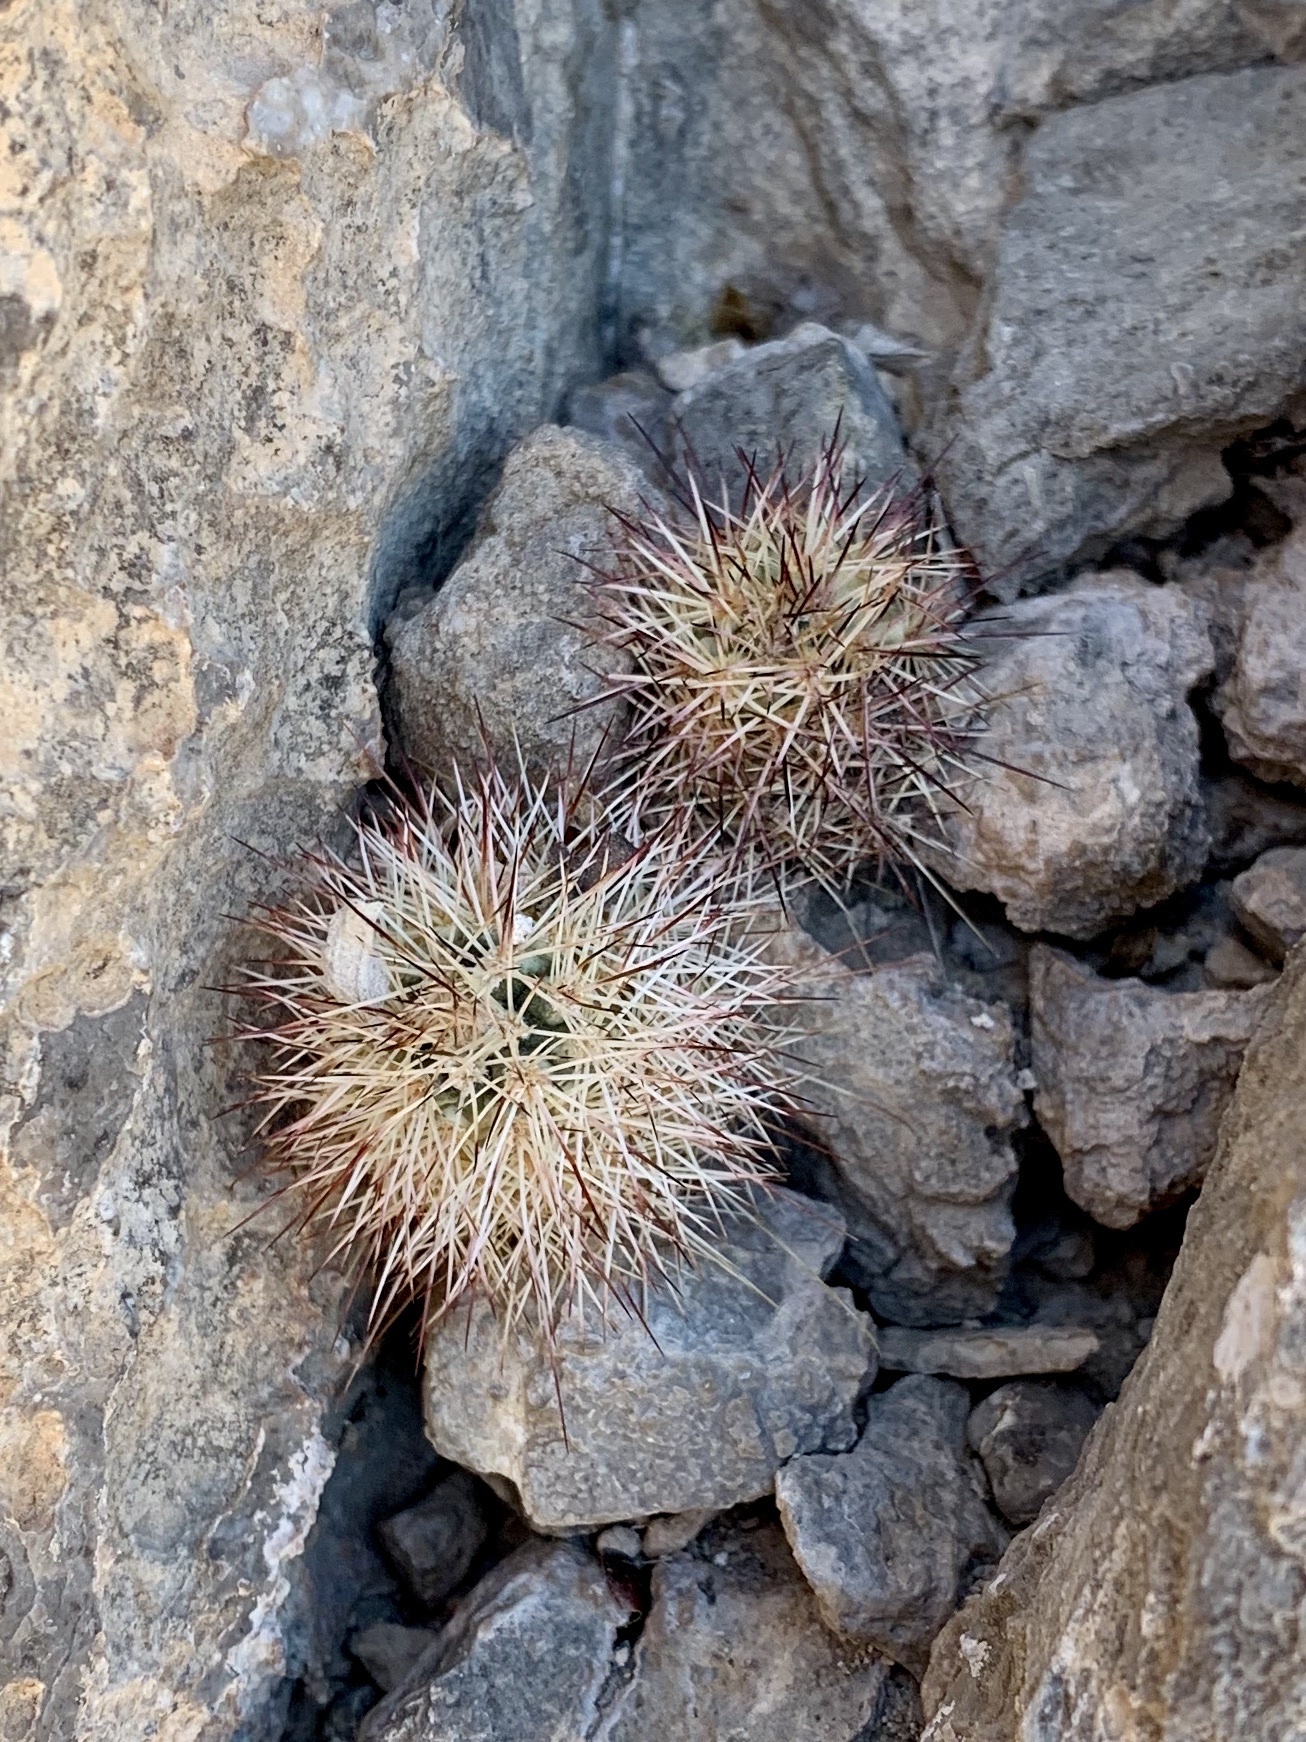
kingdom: Plantae
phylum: Tracheophyta
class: Magnoliopsida
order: Caryophyllales
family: Cactaceae
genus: Echinocereus
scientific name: Echinocereus coccineus
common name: Scarlet hedgehog cactus
